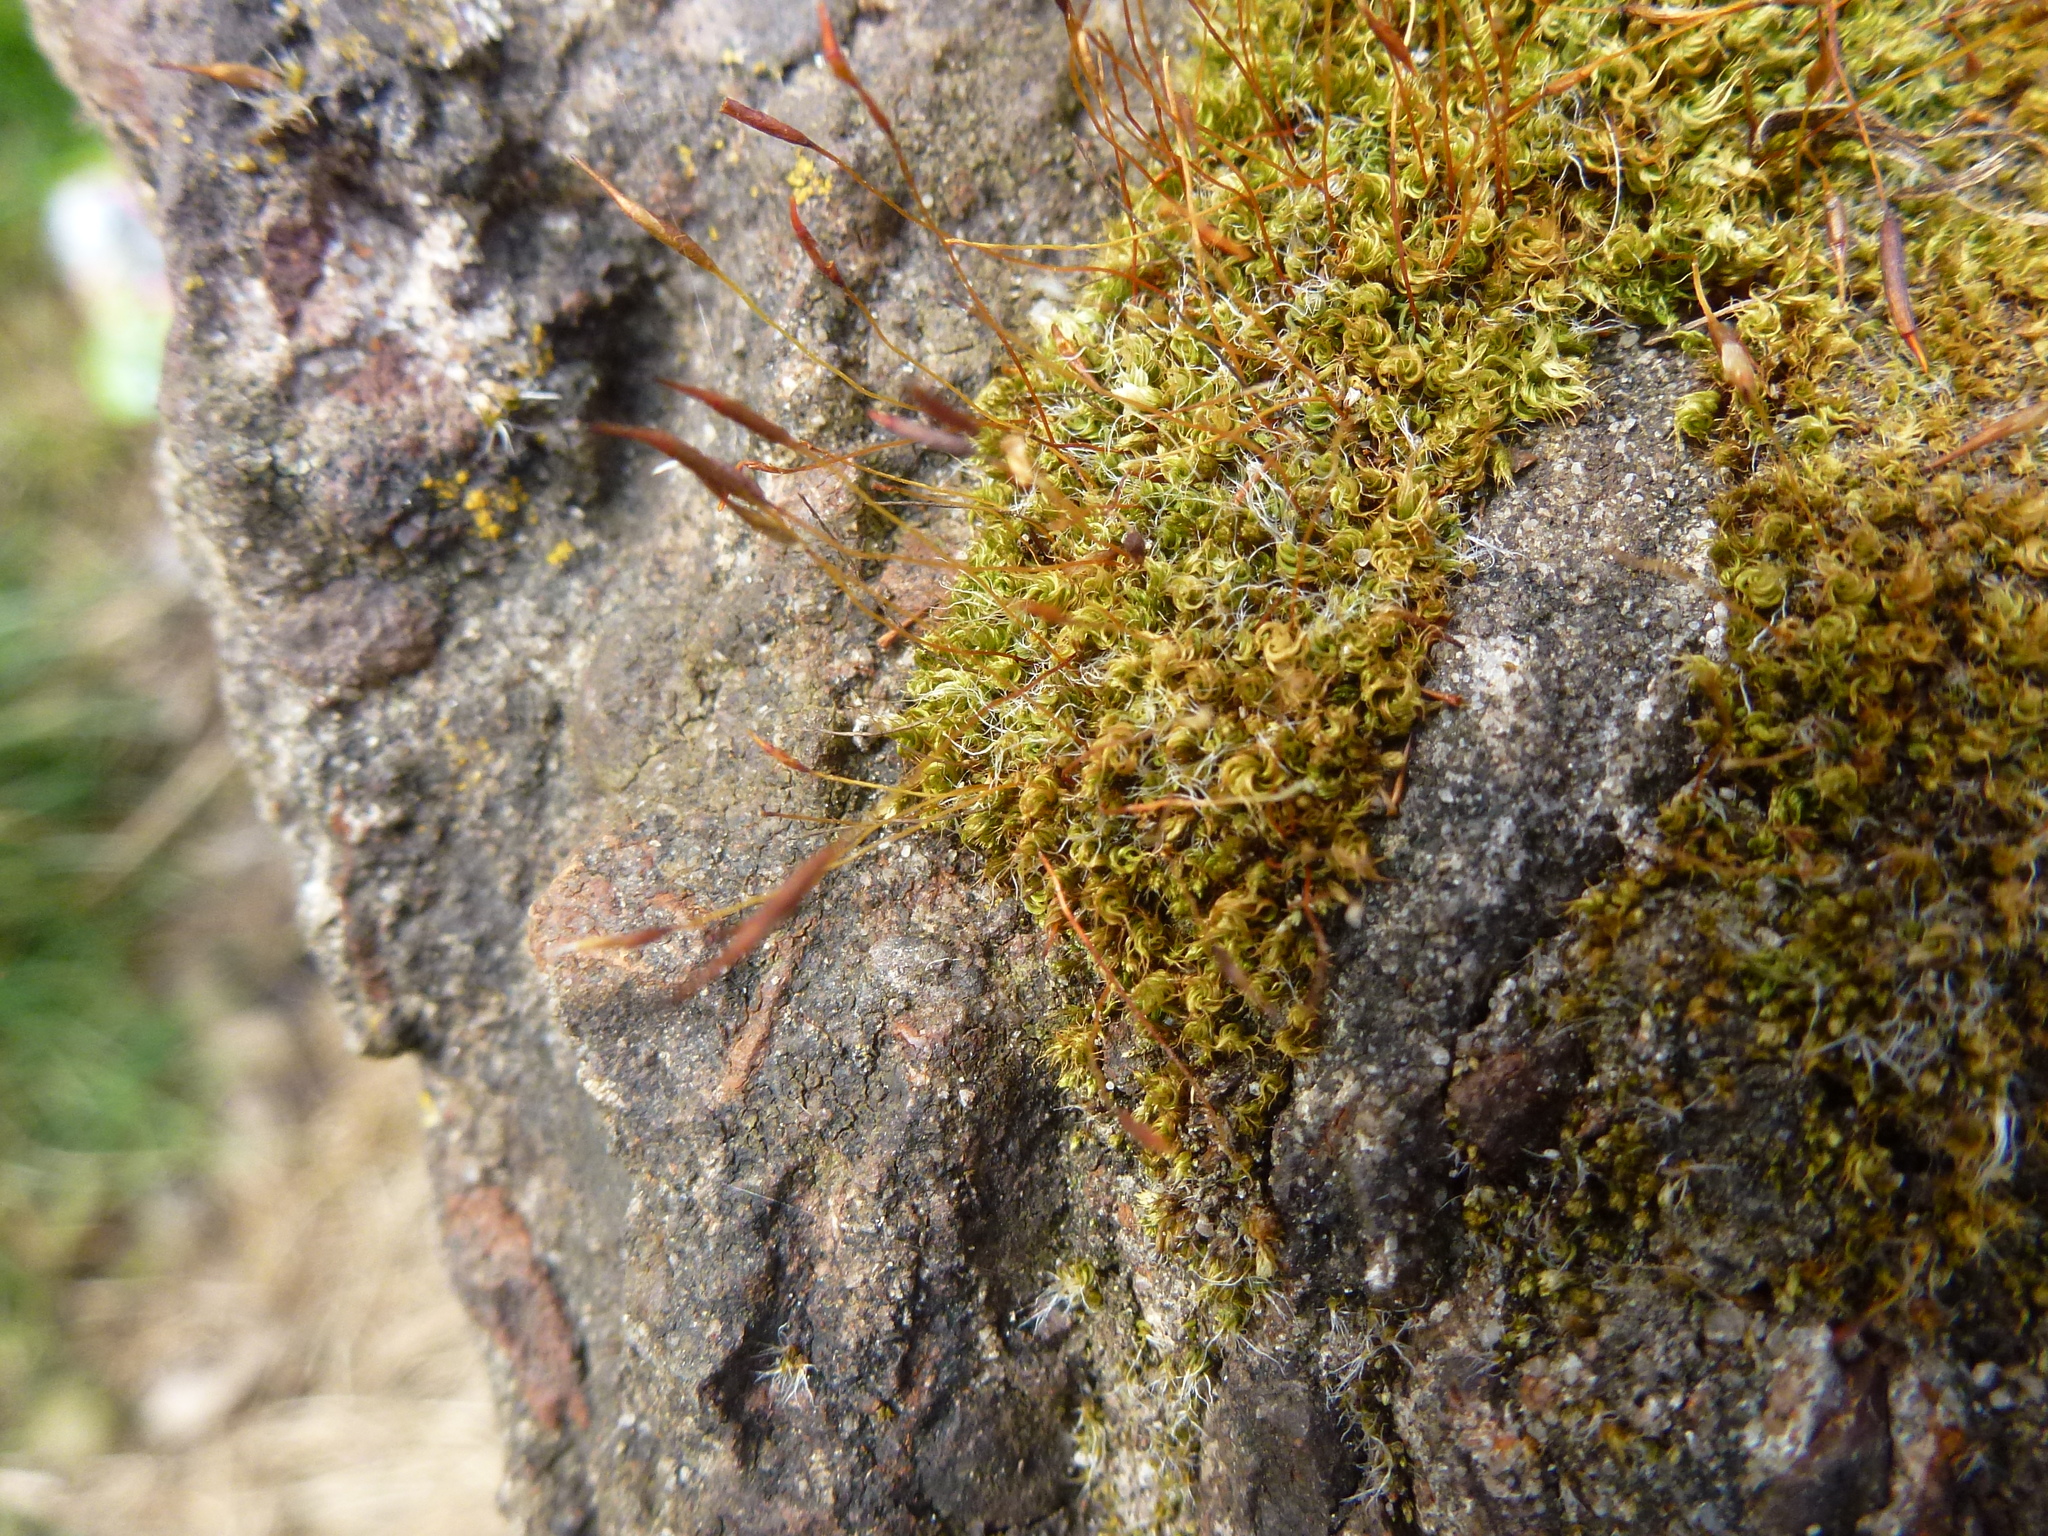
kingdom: Plantae
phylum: Bryophyta
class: Bryopsida
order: Pottiales
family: Pottiaceae
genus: Tortula
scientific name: Tortula muralis
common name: Wall screw-moss
